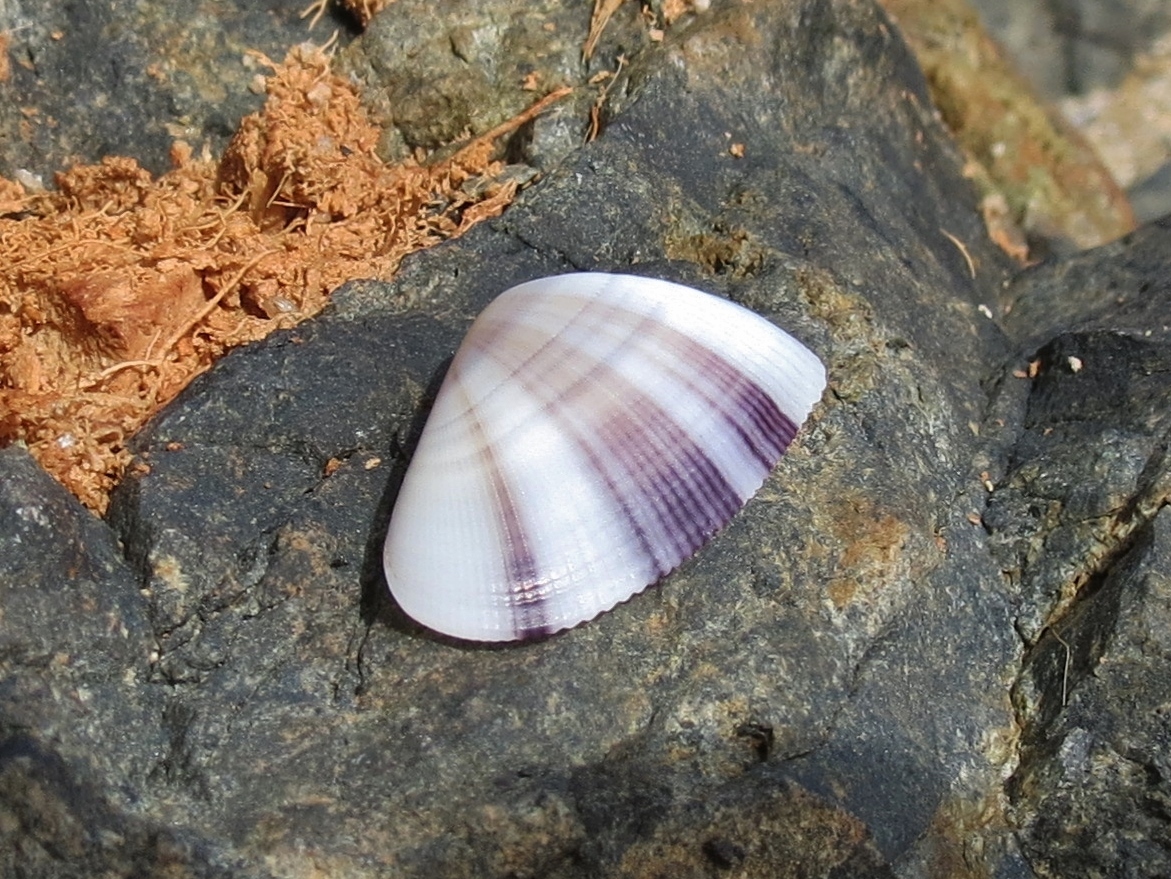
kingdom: Animalia
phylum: Mollusca
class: Bivalvia
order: Cardiida
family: Donacidae
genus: Donax
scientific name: Donax denticulatus
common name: Common caribbean coquina
